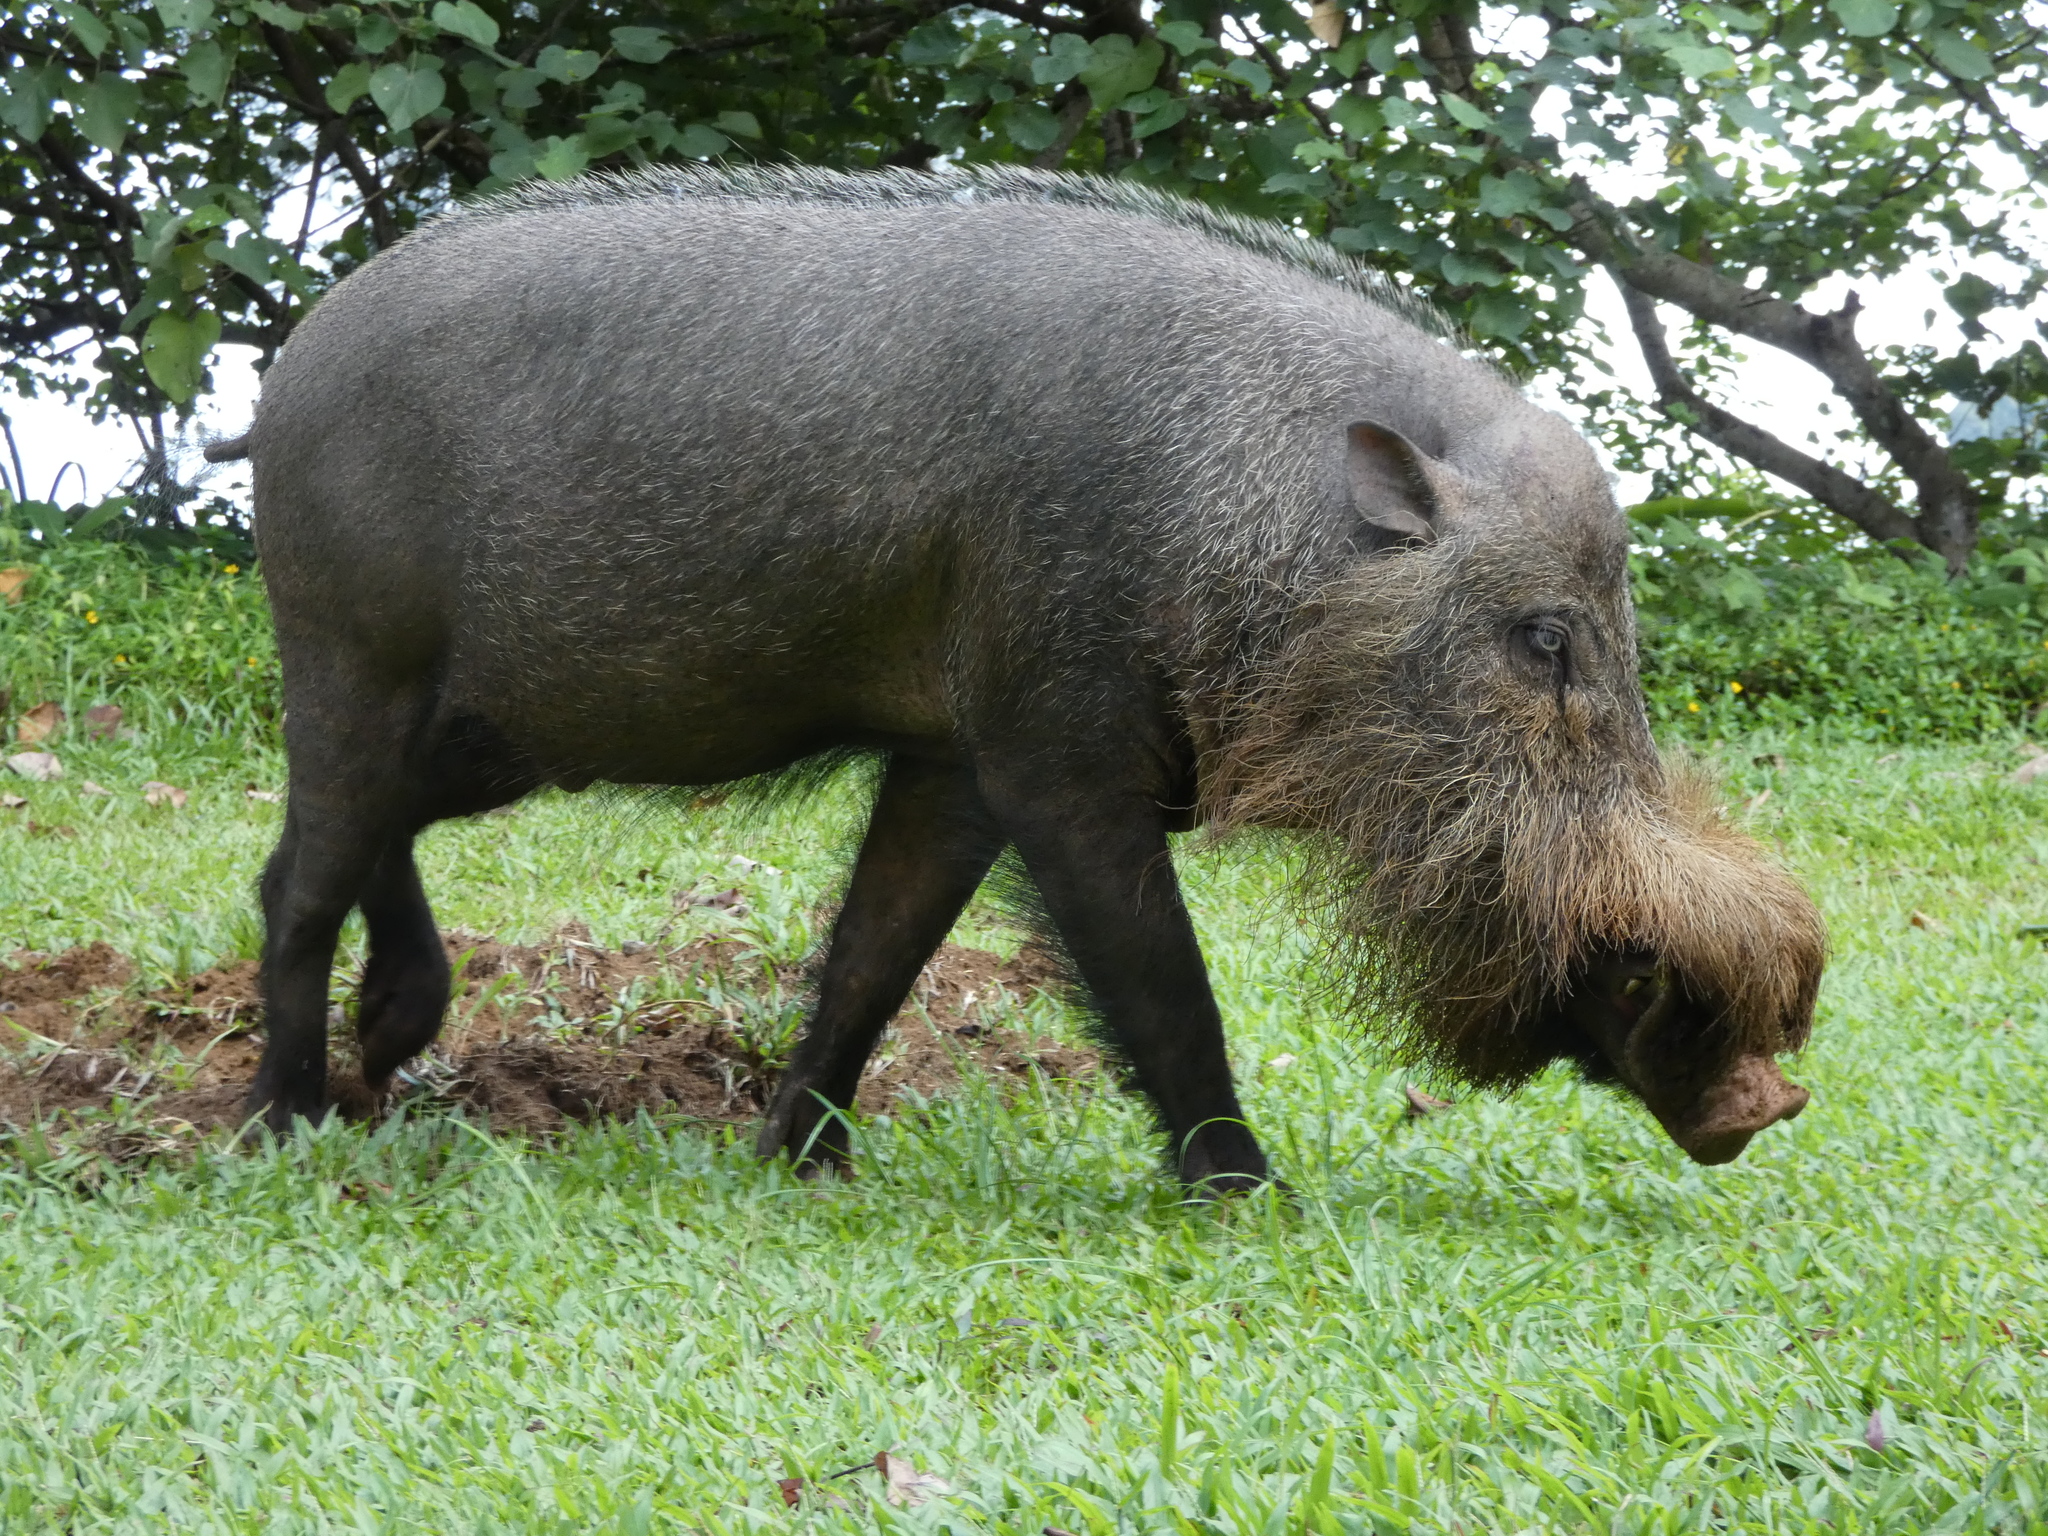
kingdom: Animalia
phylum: Chordata
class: Mammalia
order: Artiodactyla
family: Suidae
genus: Sus
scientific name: Sus barbatus
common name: Bearded pig
